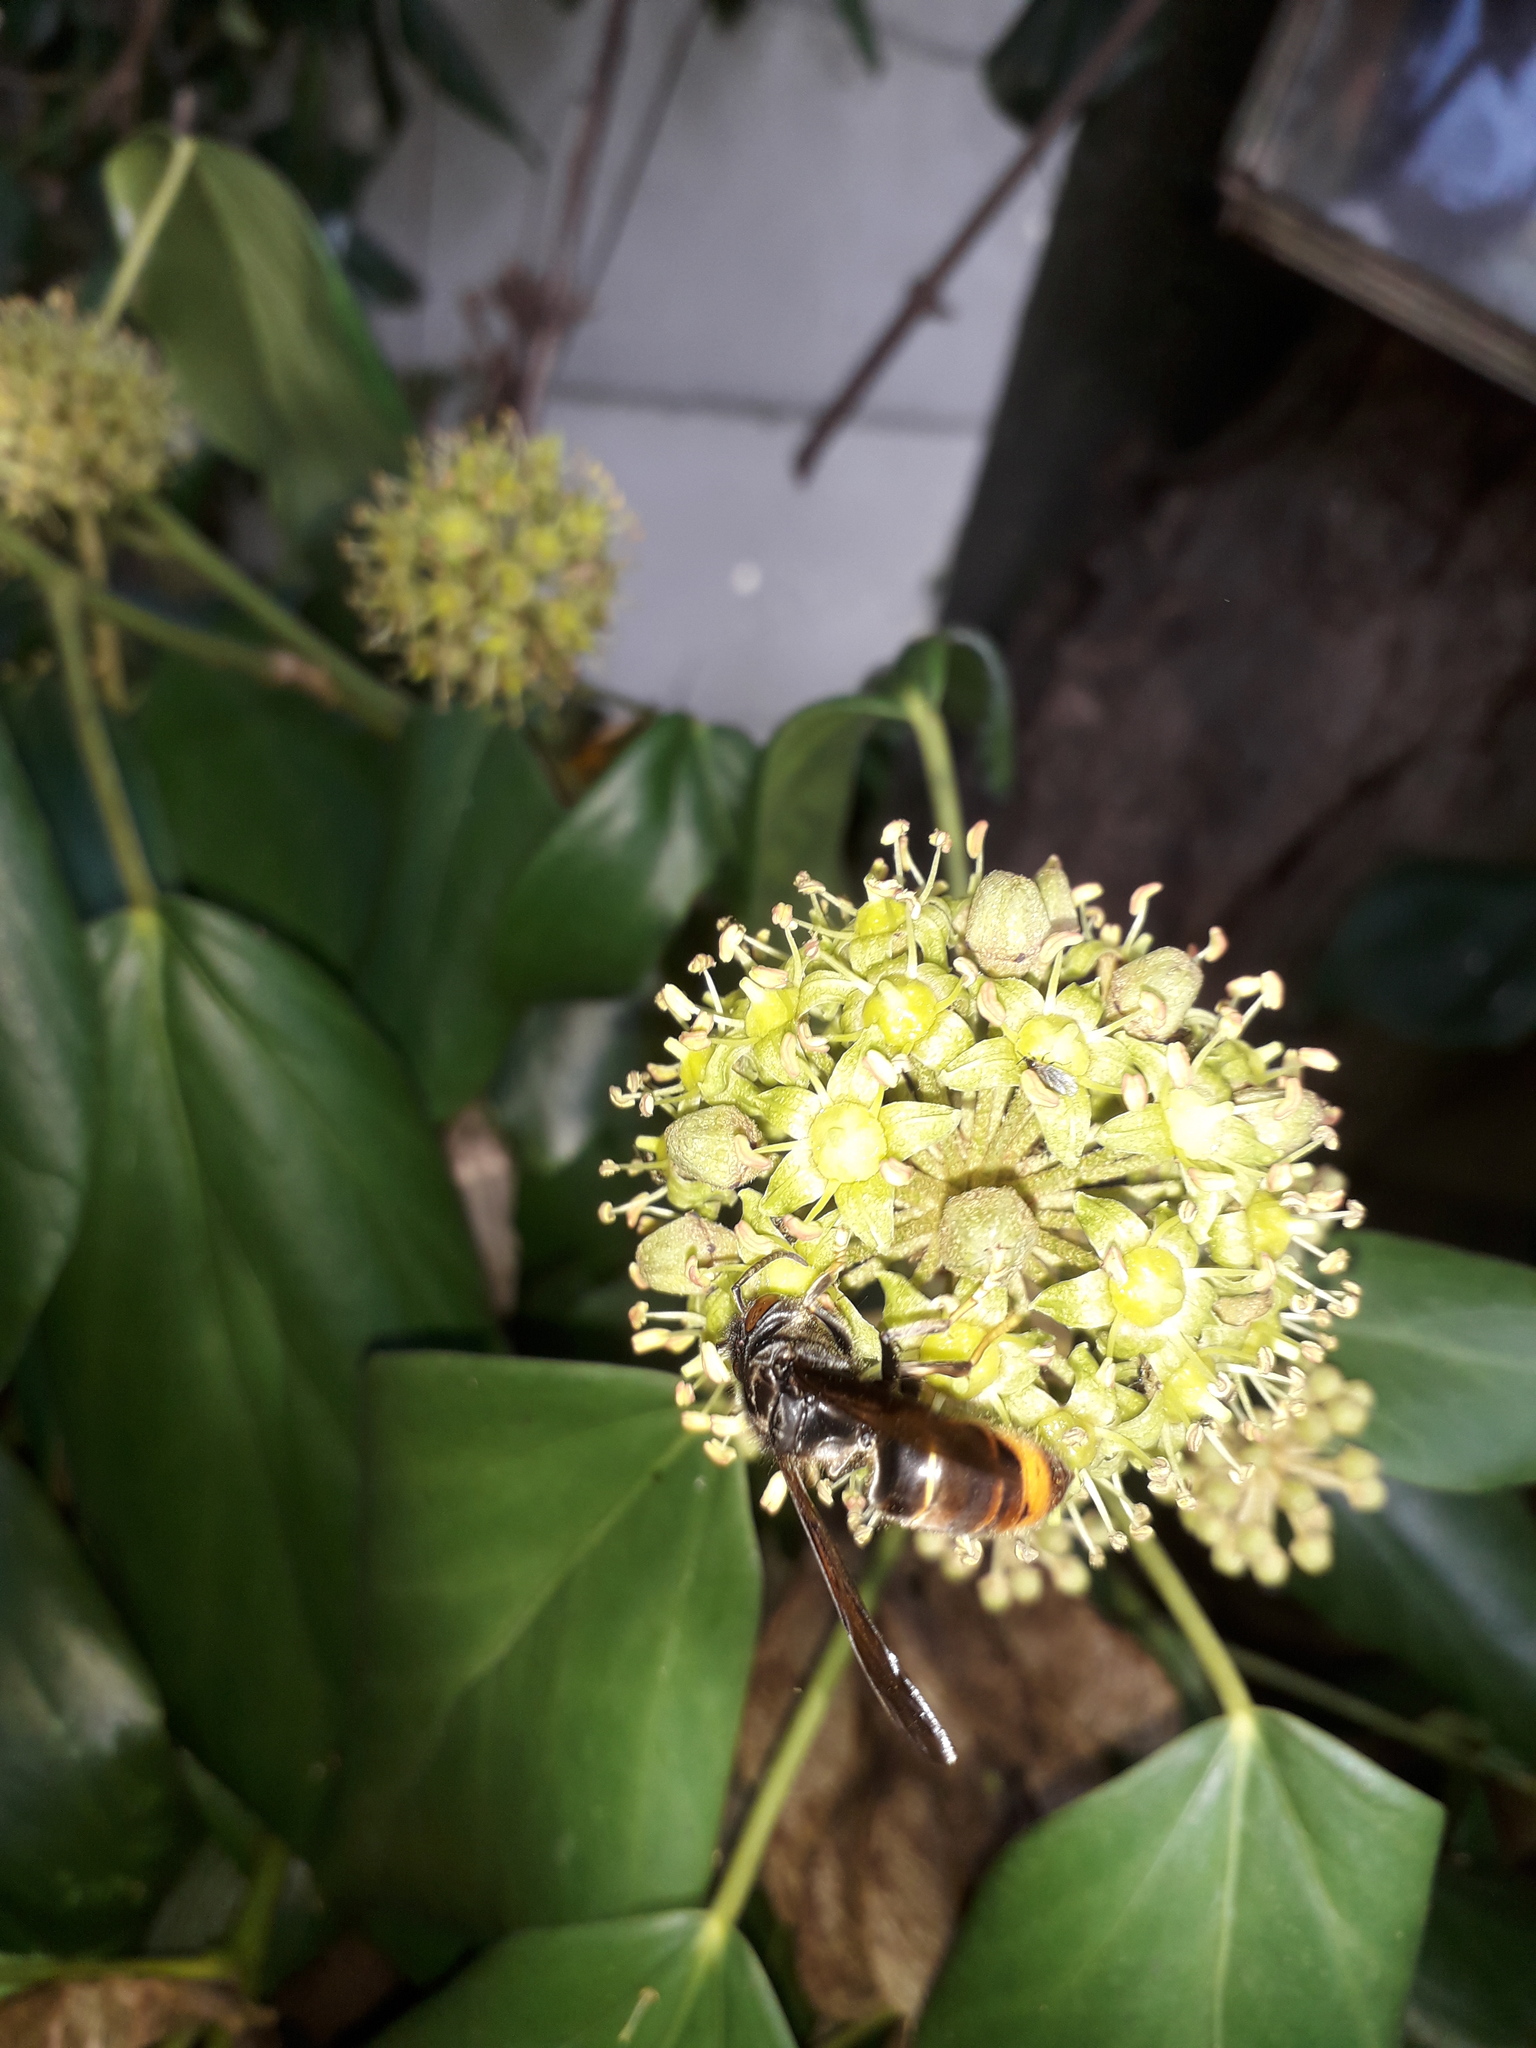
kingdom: Animalia
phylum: Arthropoda
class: Insecta
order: Hymenoptera
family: Vespidae
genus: Vespa
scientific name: Vespa velutina
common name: Asian hornet
